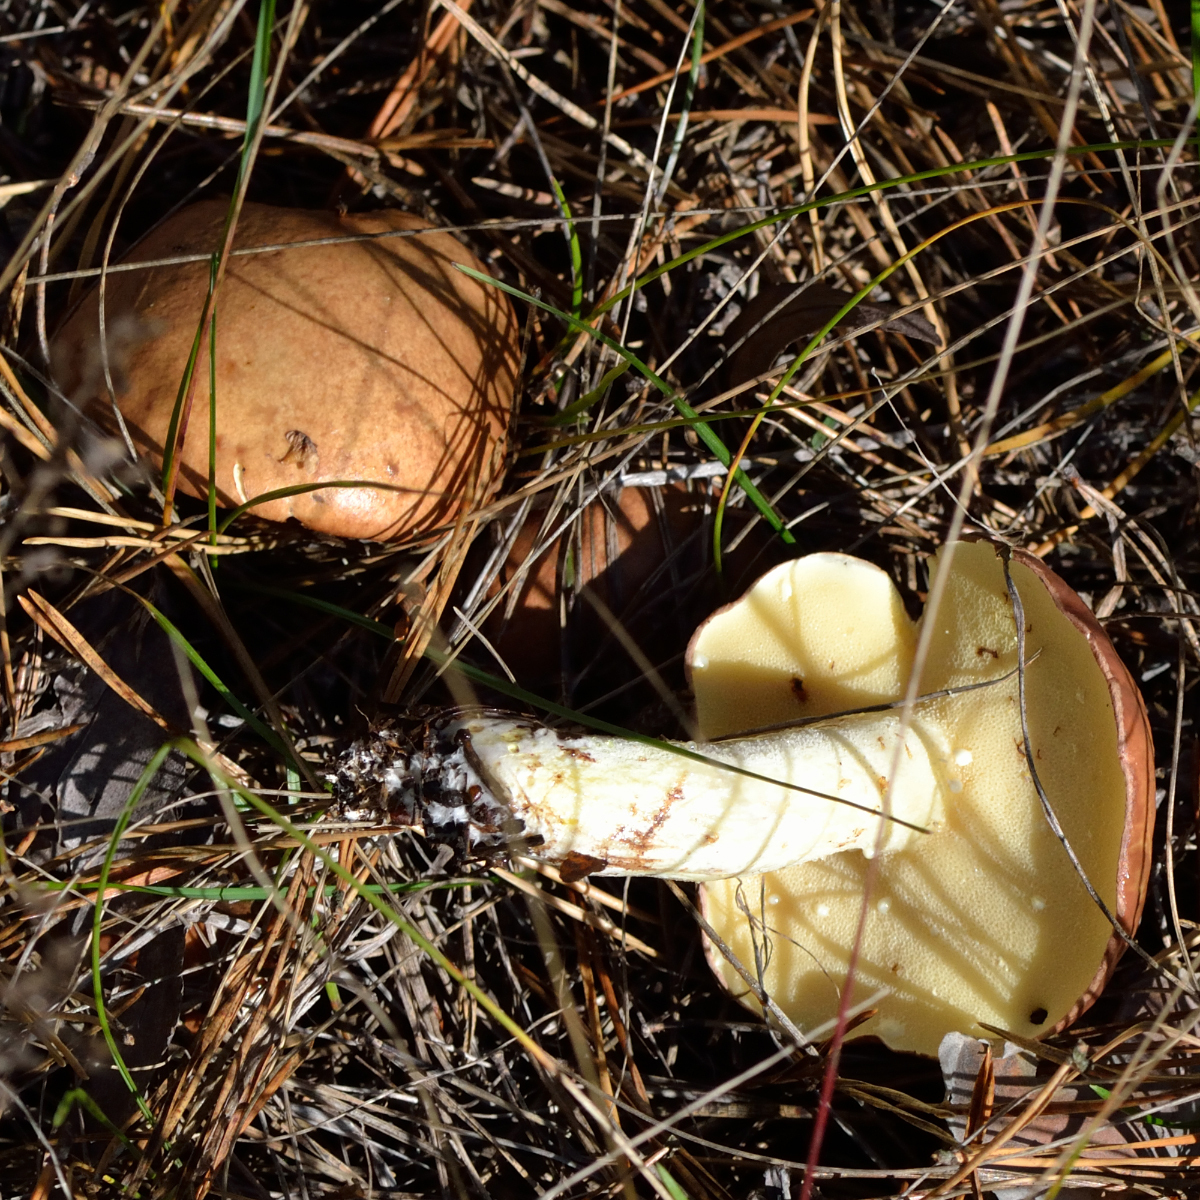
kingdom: Fungi
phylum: Basidiomycota
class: Agaricomycetes
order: Boletales
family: Suillaceae
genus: Suillus
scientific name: Suillus granulatus
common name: Weeping bolete
